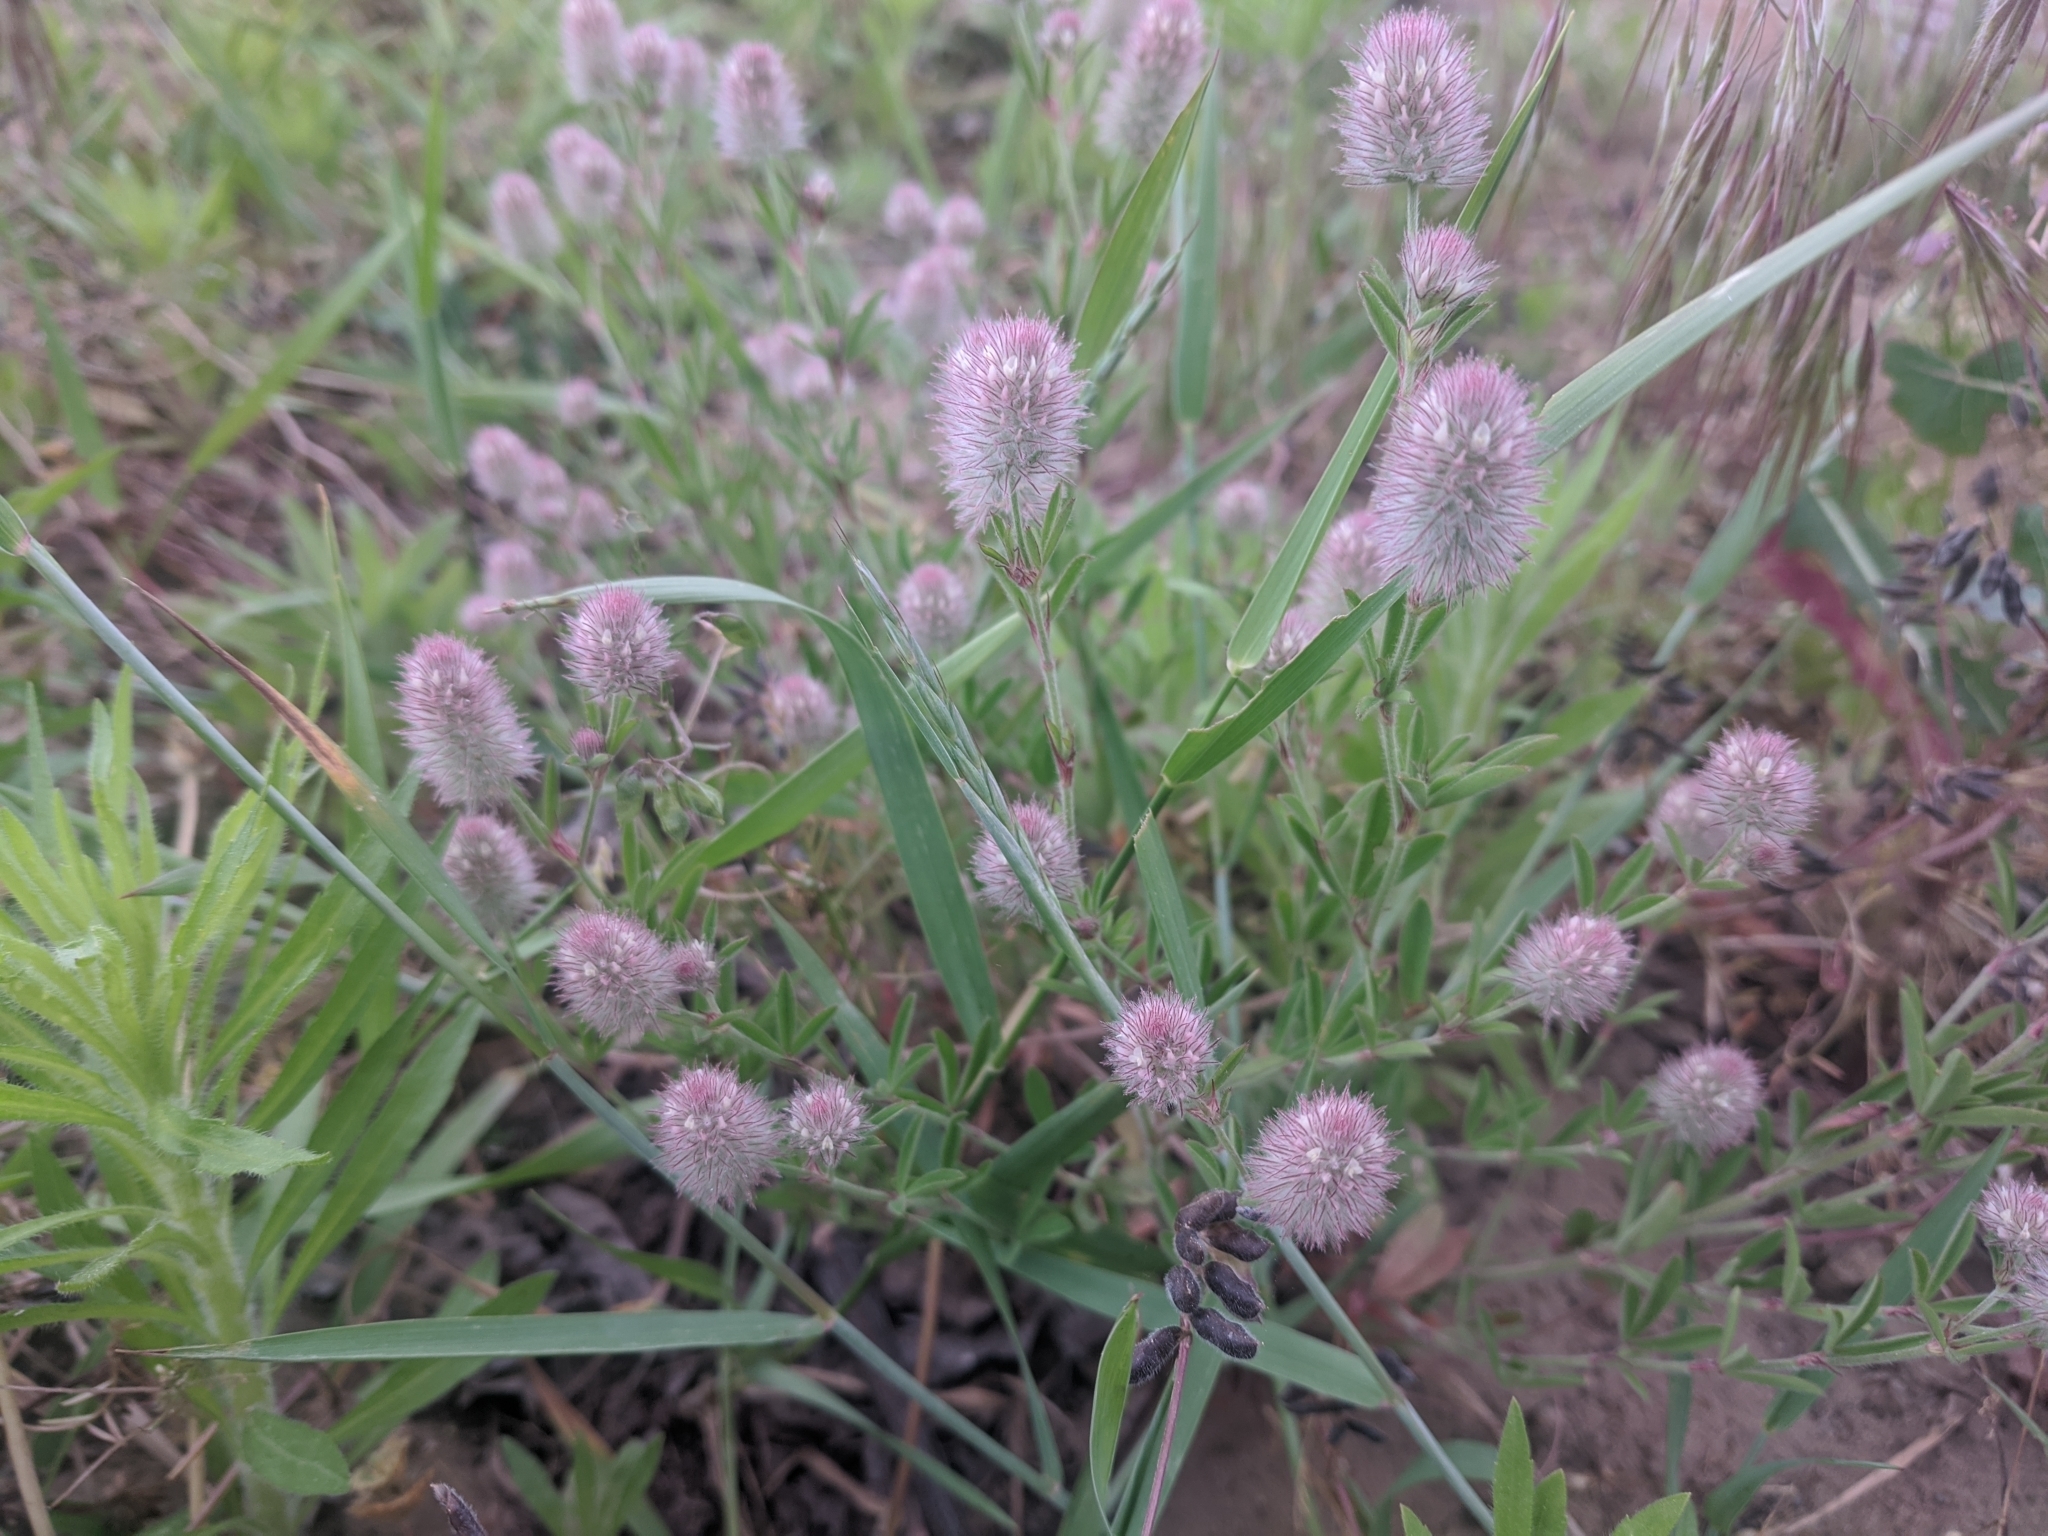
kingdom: Plantae
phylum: Tracheophyta
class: Magnoliopsida
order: Fabales
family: Fabaceae
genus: Trifolium
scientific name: Trifolium arvense
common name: Hare's-foot clover
